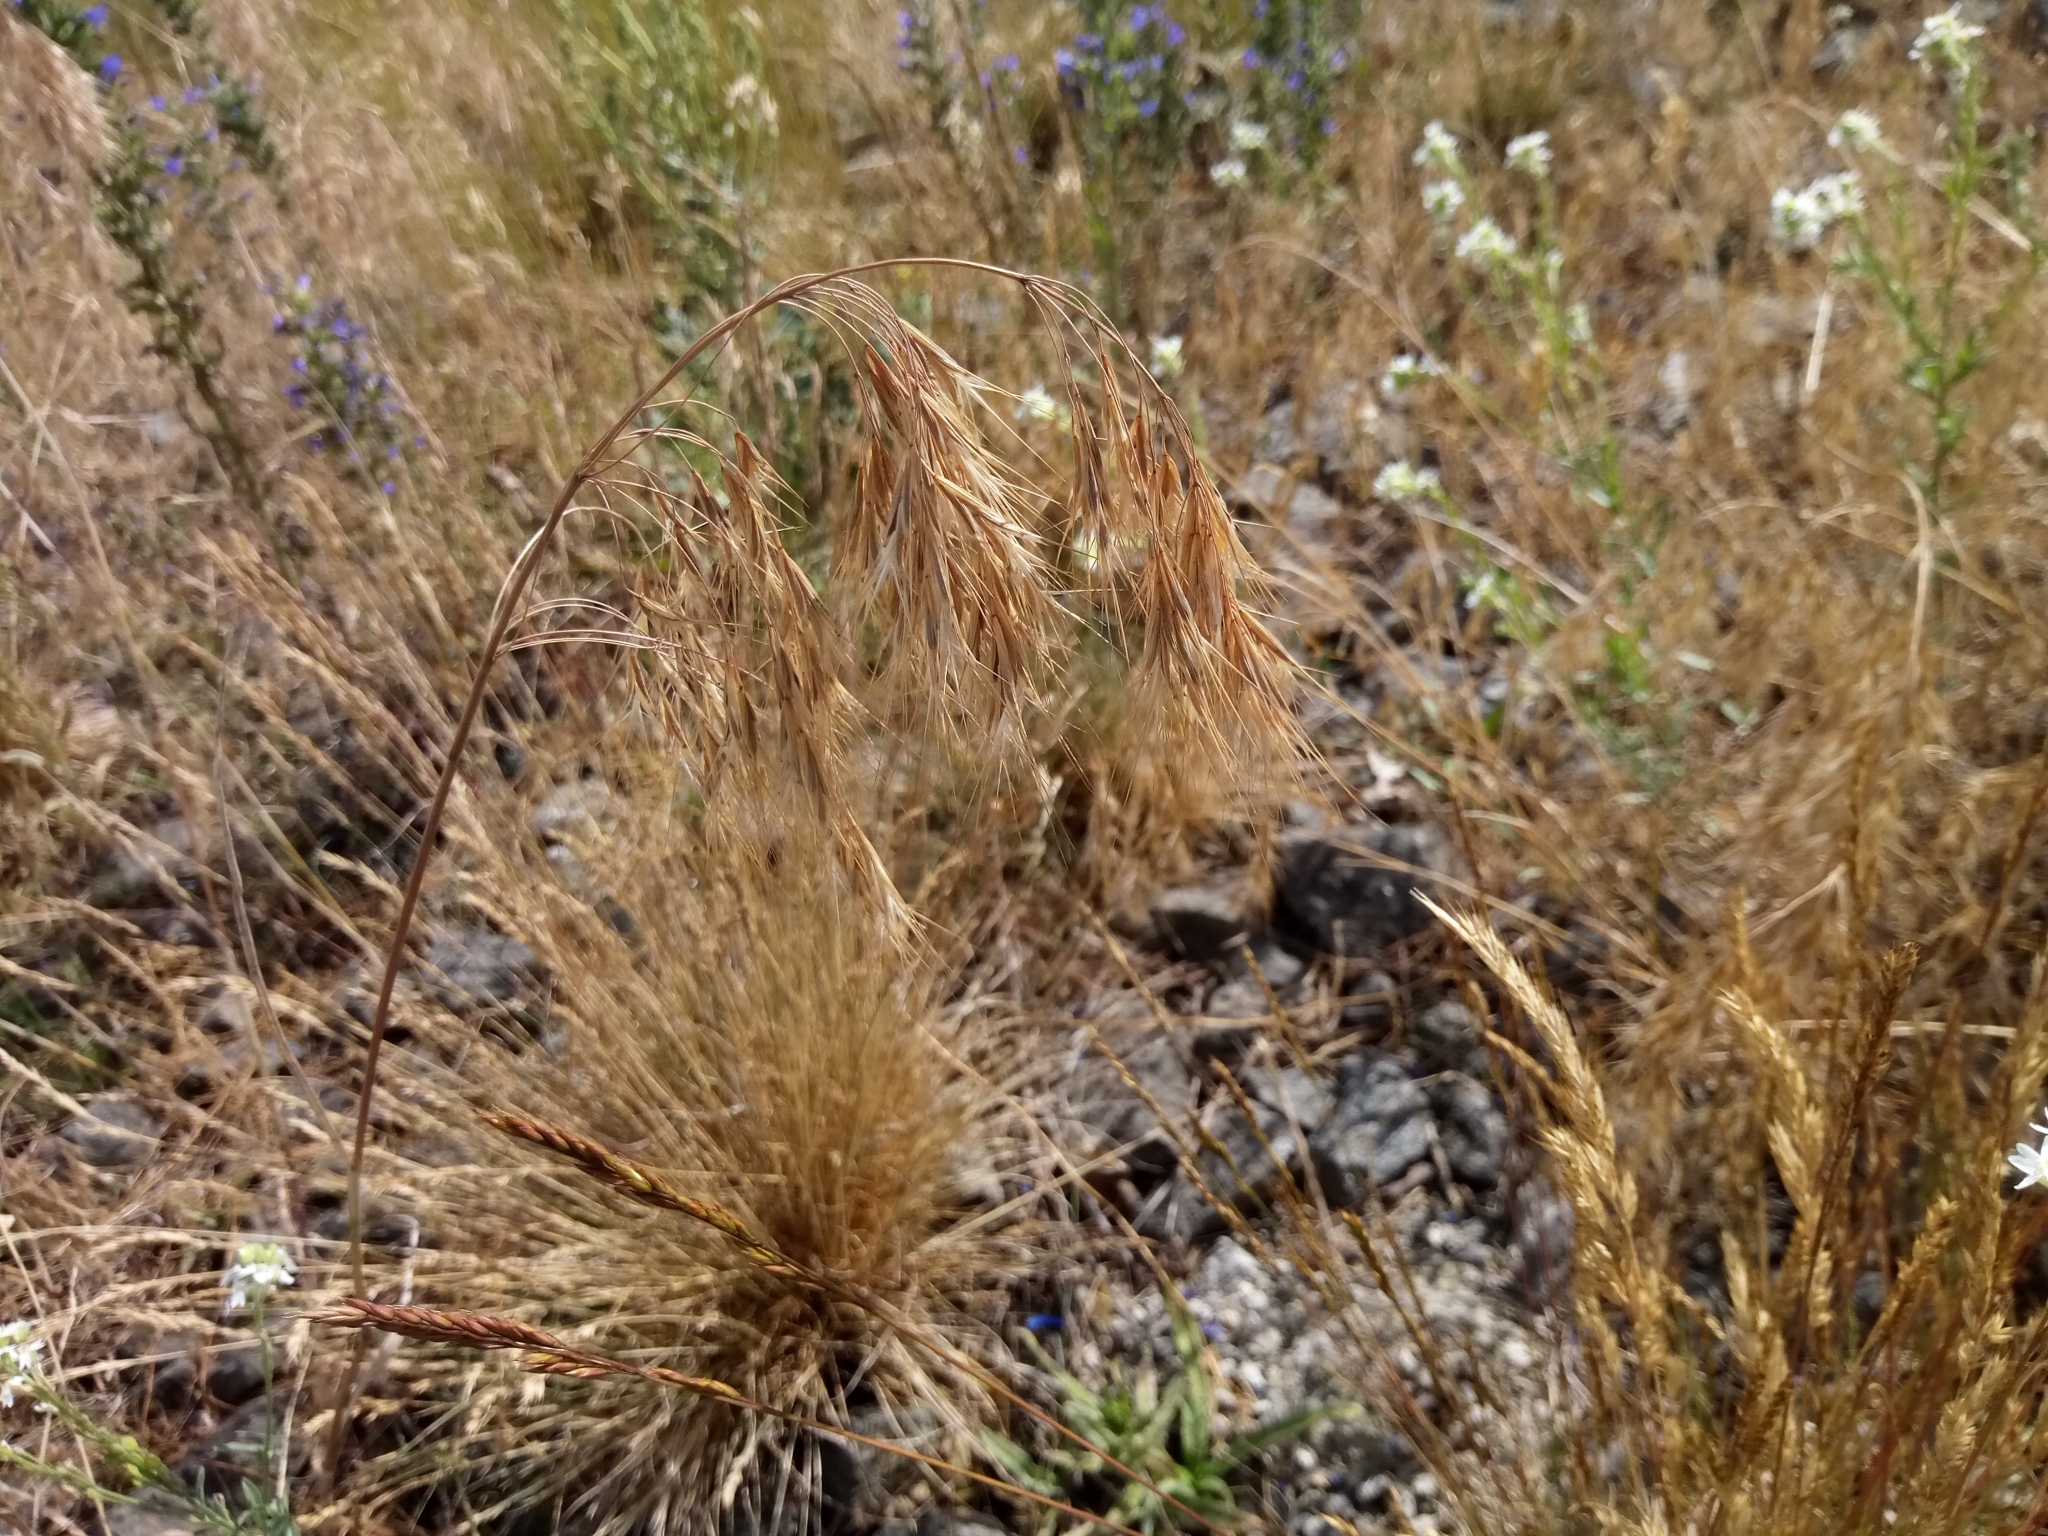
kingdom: Plantae
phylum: Tracheophyta
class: Liliopsida
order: Poales
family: Poaceae
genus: Bromus
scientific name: Bromus tectorum
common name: Cheatgrass
